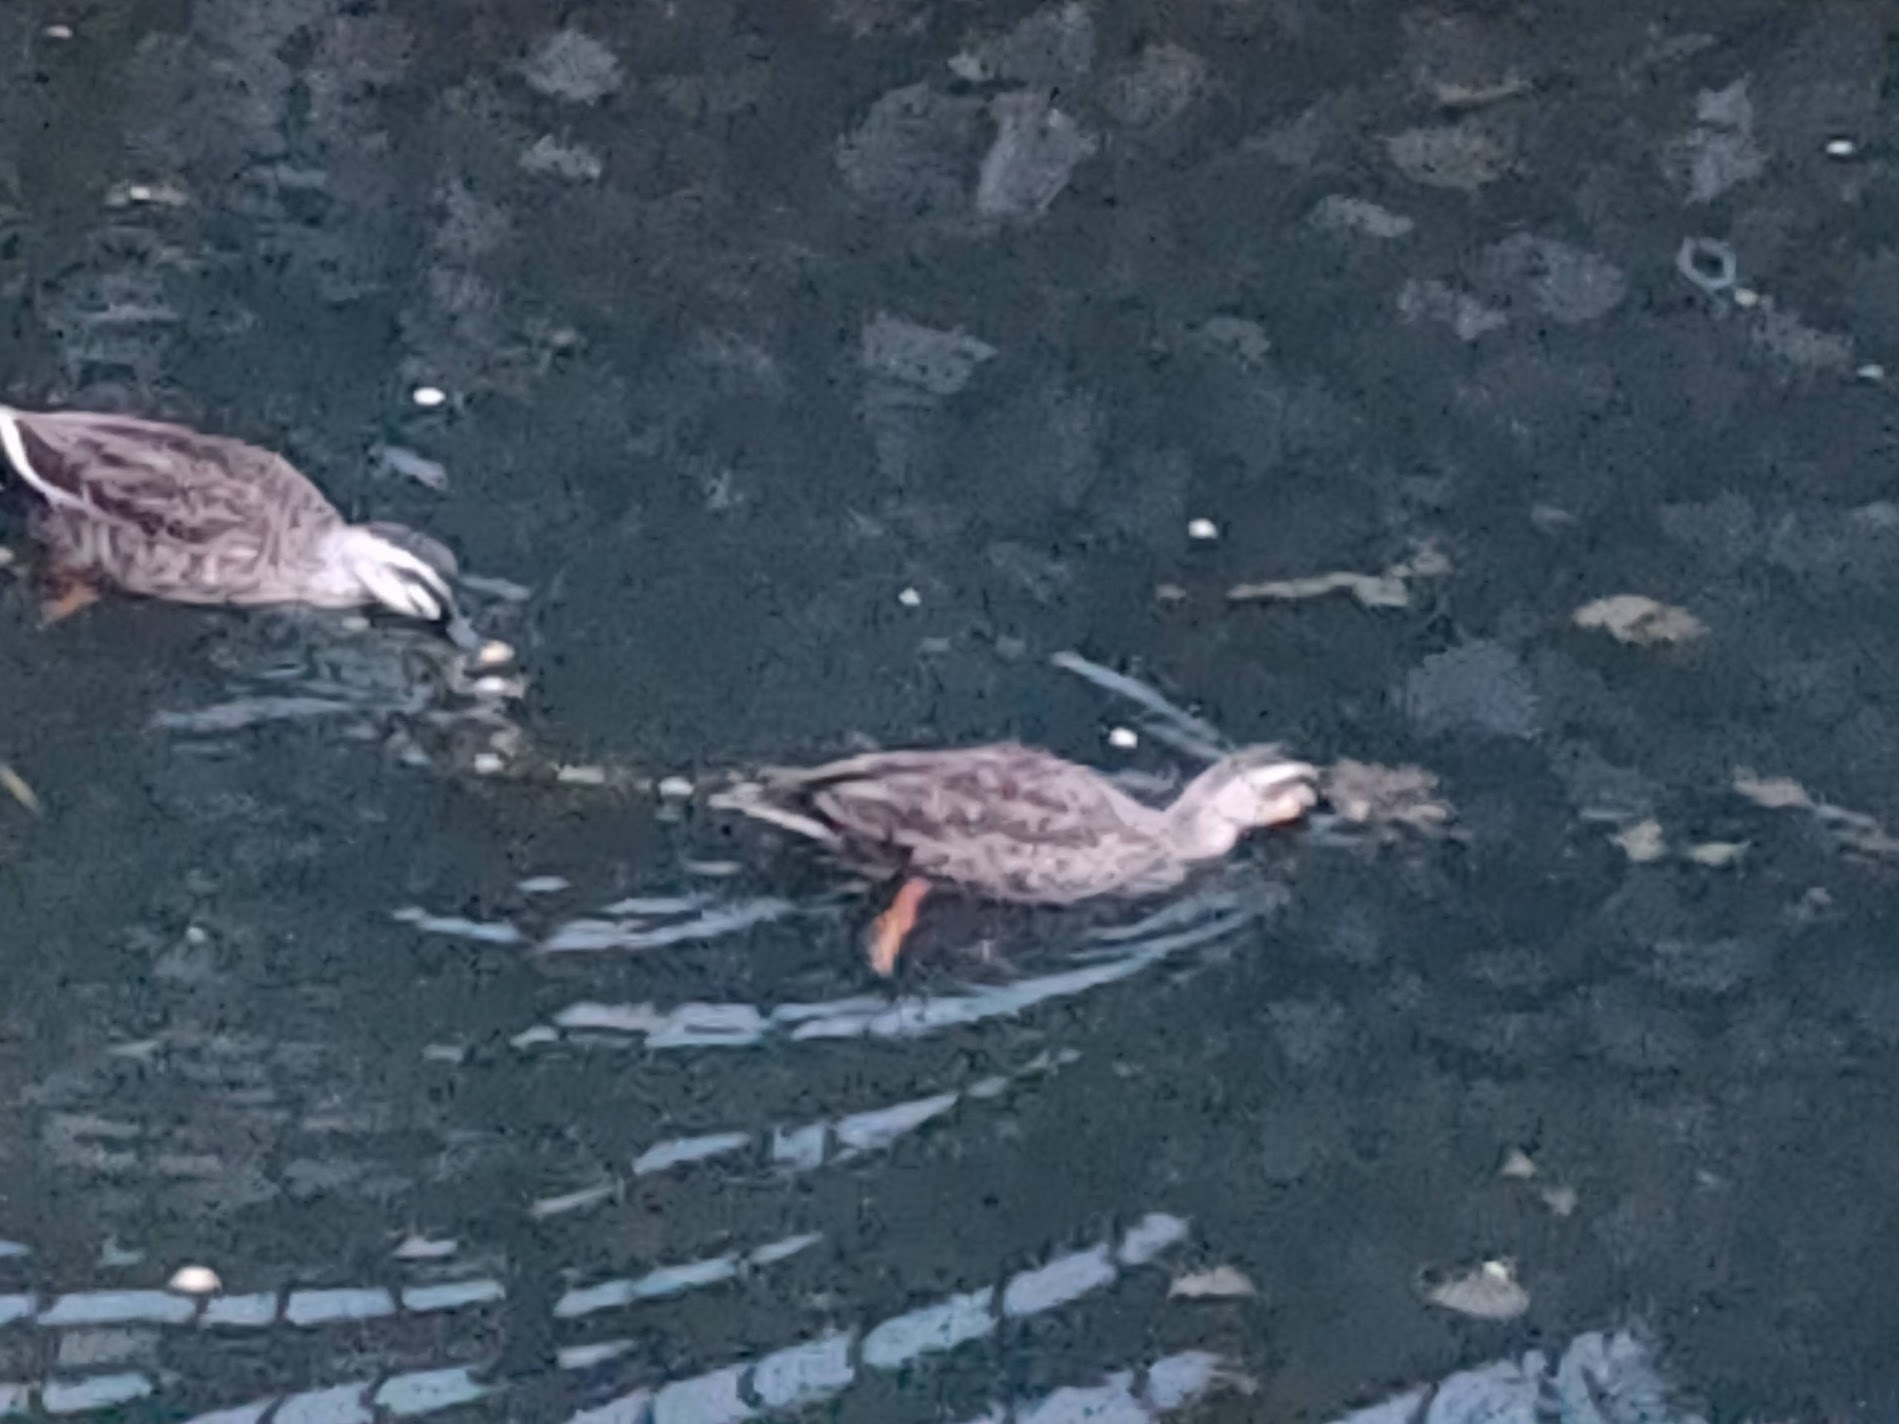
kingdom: Animalia
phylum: Chordata
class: Aves
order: Anseriformes
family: Anatidae
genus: Anas
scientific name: Anas zonorhyncha
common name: Eastern spot-billed duck
